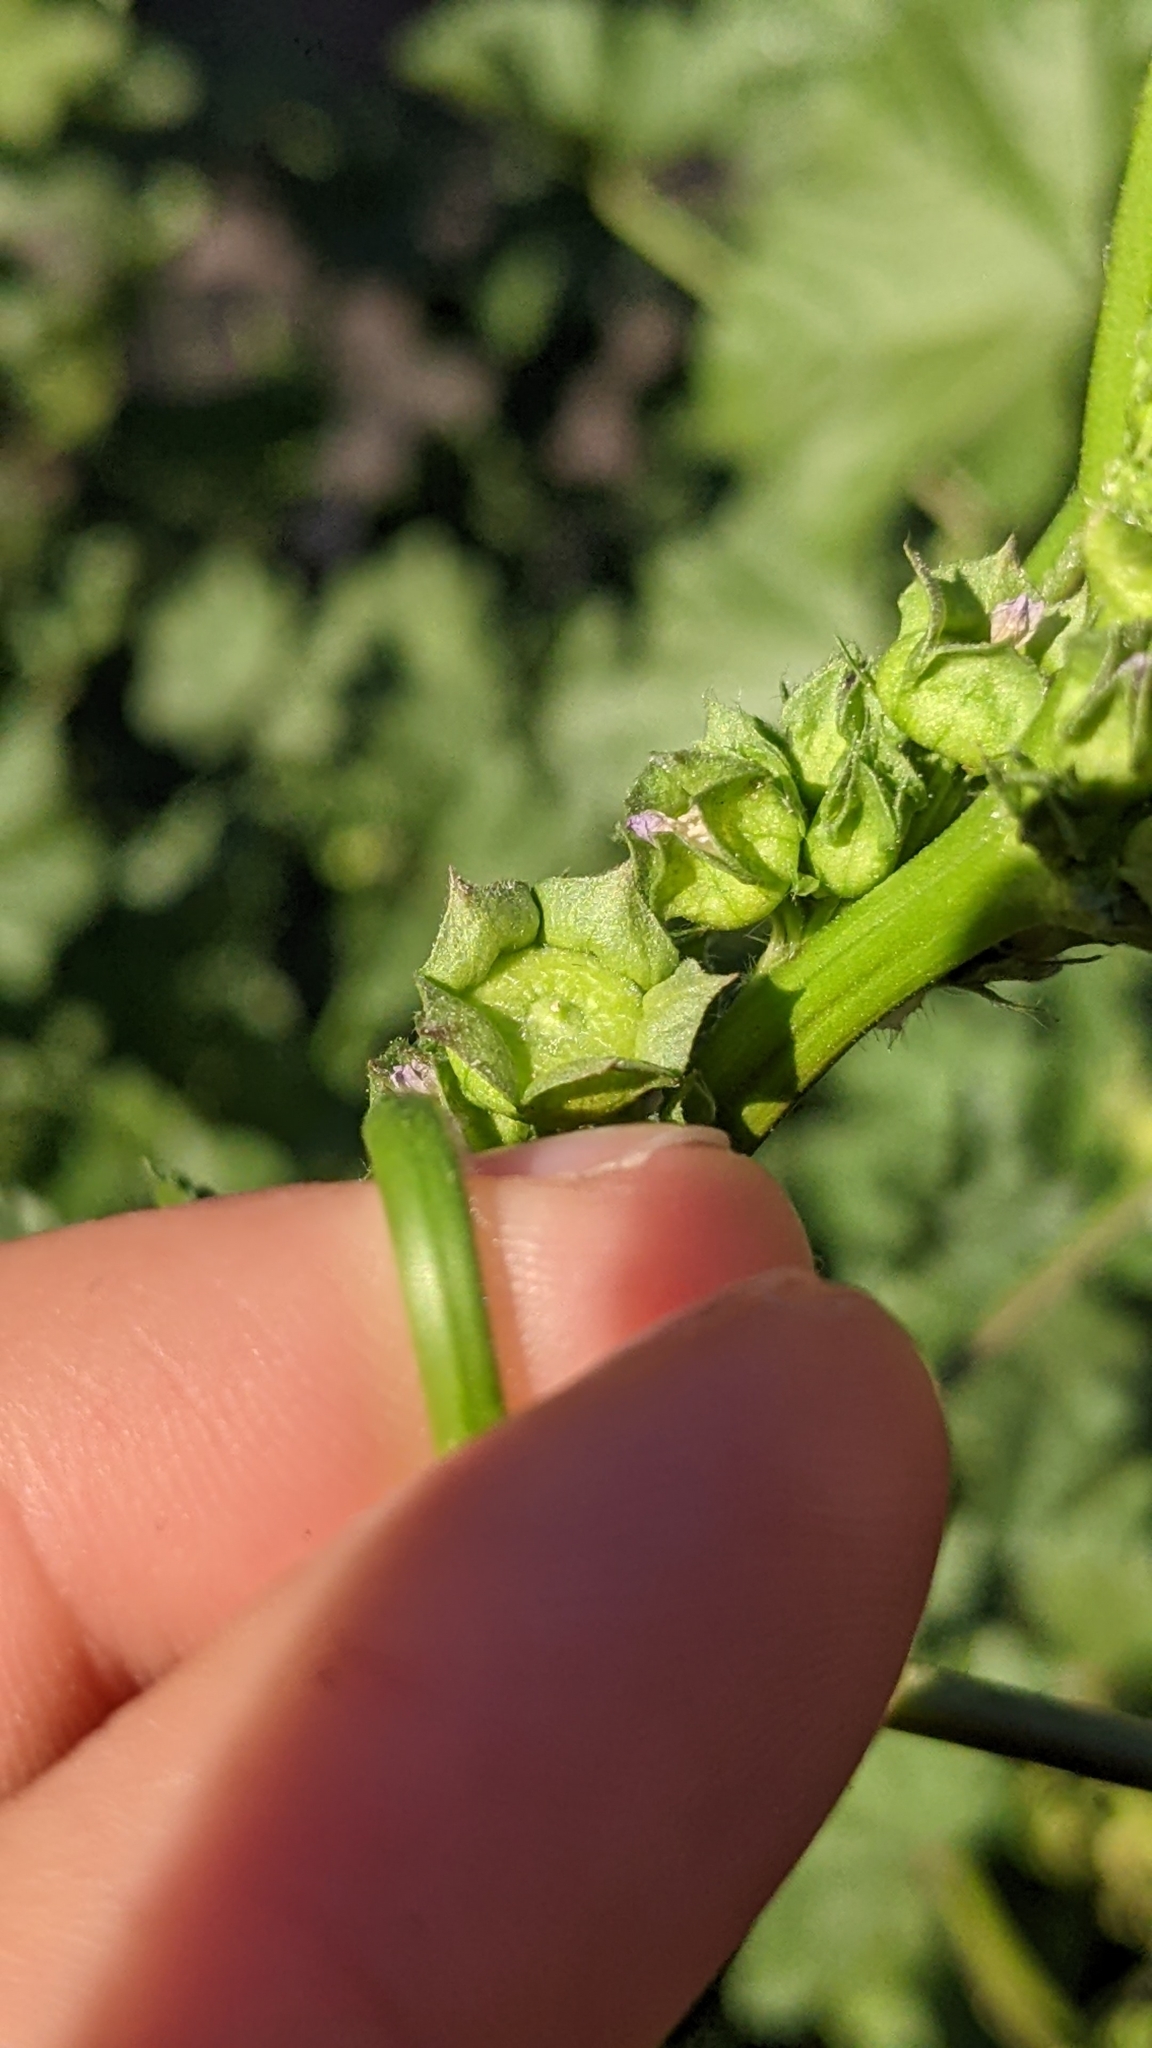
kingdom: Plantae
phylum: Tracheophyta
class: Magnoliopsida
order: Malvales
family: Malvaceae
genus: Malva
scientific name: Malva parviflora
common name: Least mallow
